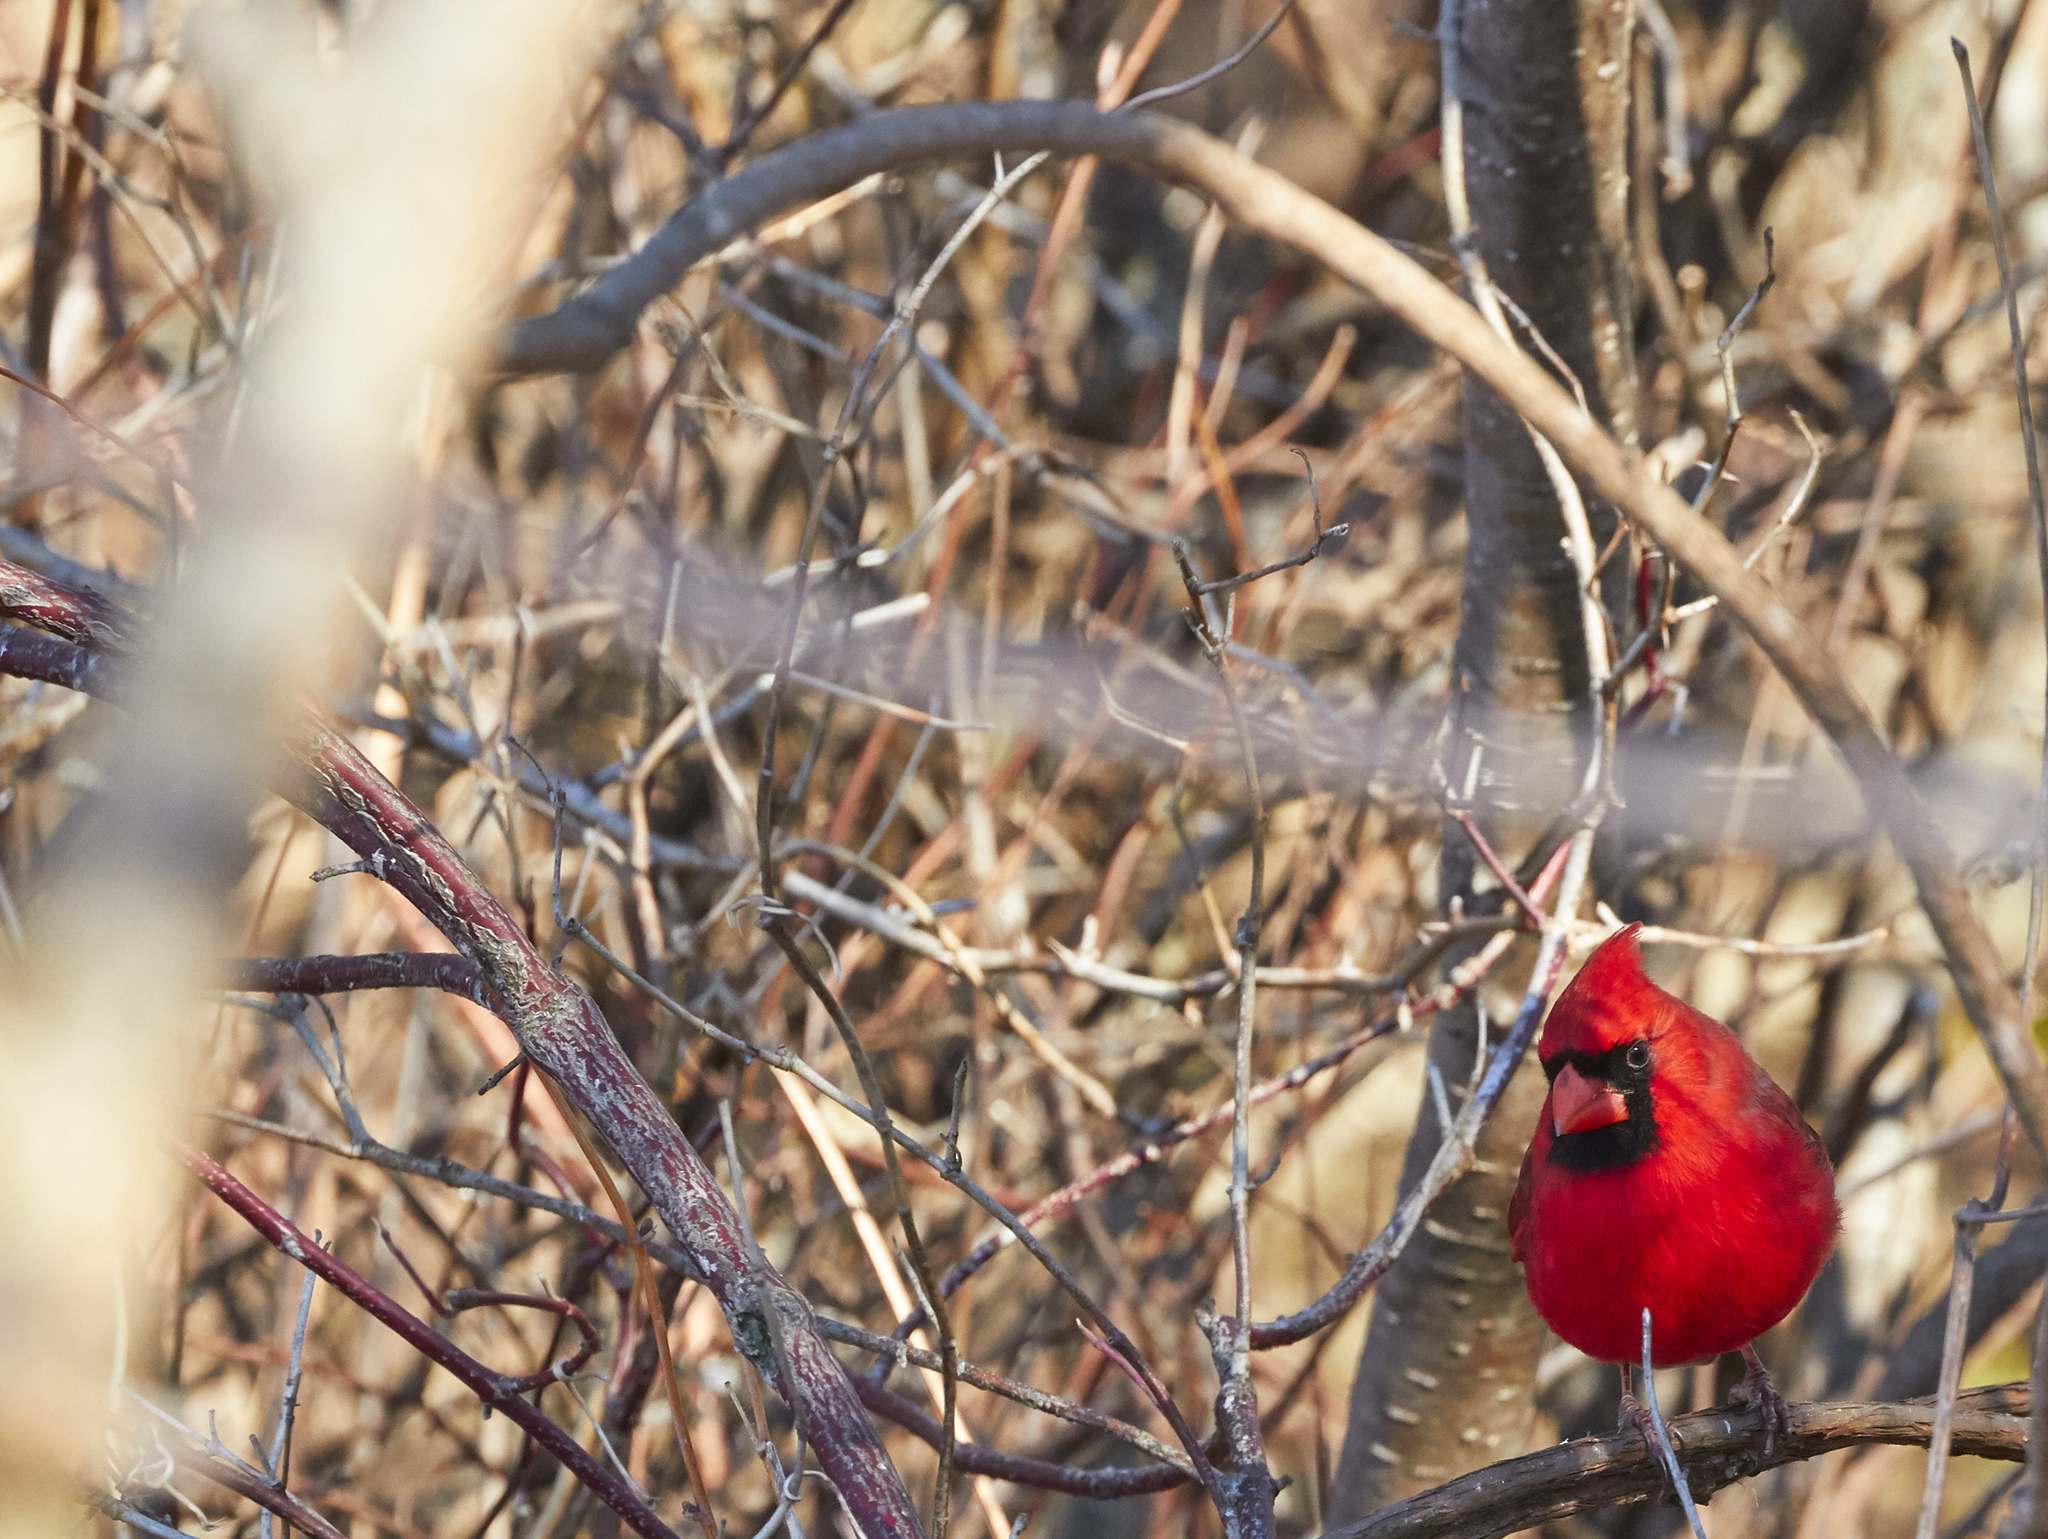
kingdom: Animalia
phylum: Chordata
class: Aves
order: Passeriformes
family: Cardinalidae
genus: Cardinalis
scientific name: Cardinalis cardinalis
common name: Northern cardinal
